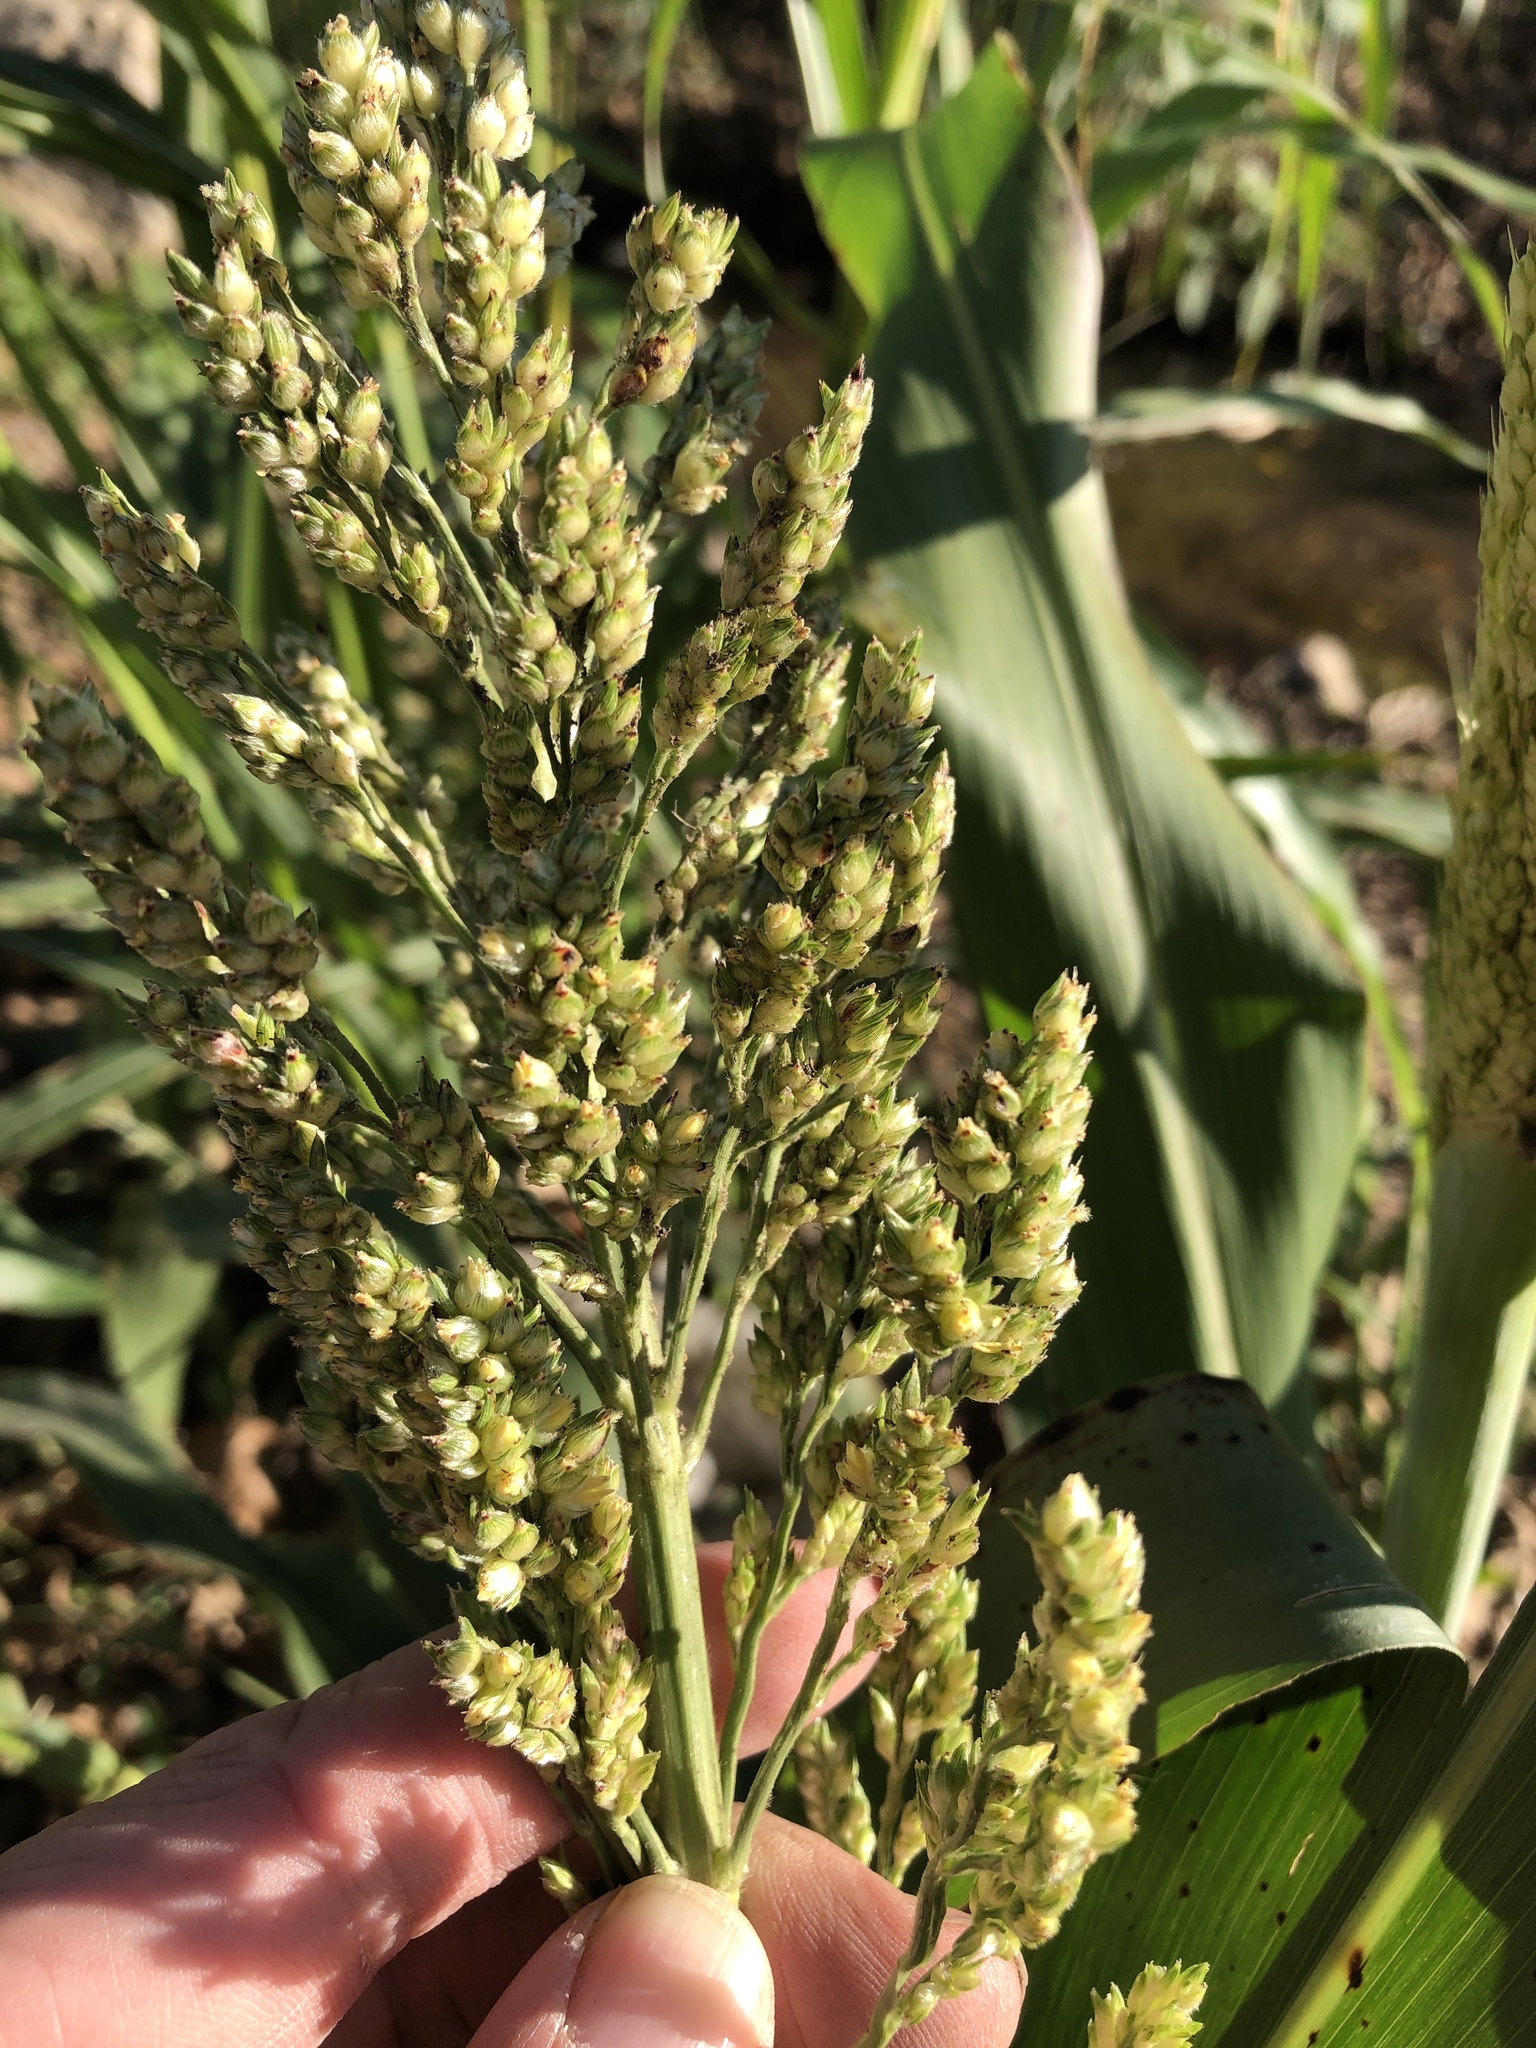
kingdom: Plantae
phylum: Tracheophyta
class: Liliopsida
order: Poales
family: Poaceae
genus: Sorghum
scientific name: Sorghum bicolor
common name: Sorghum
